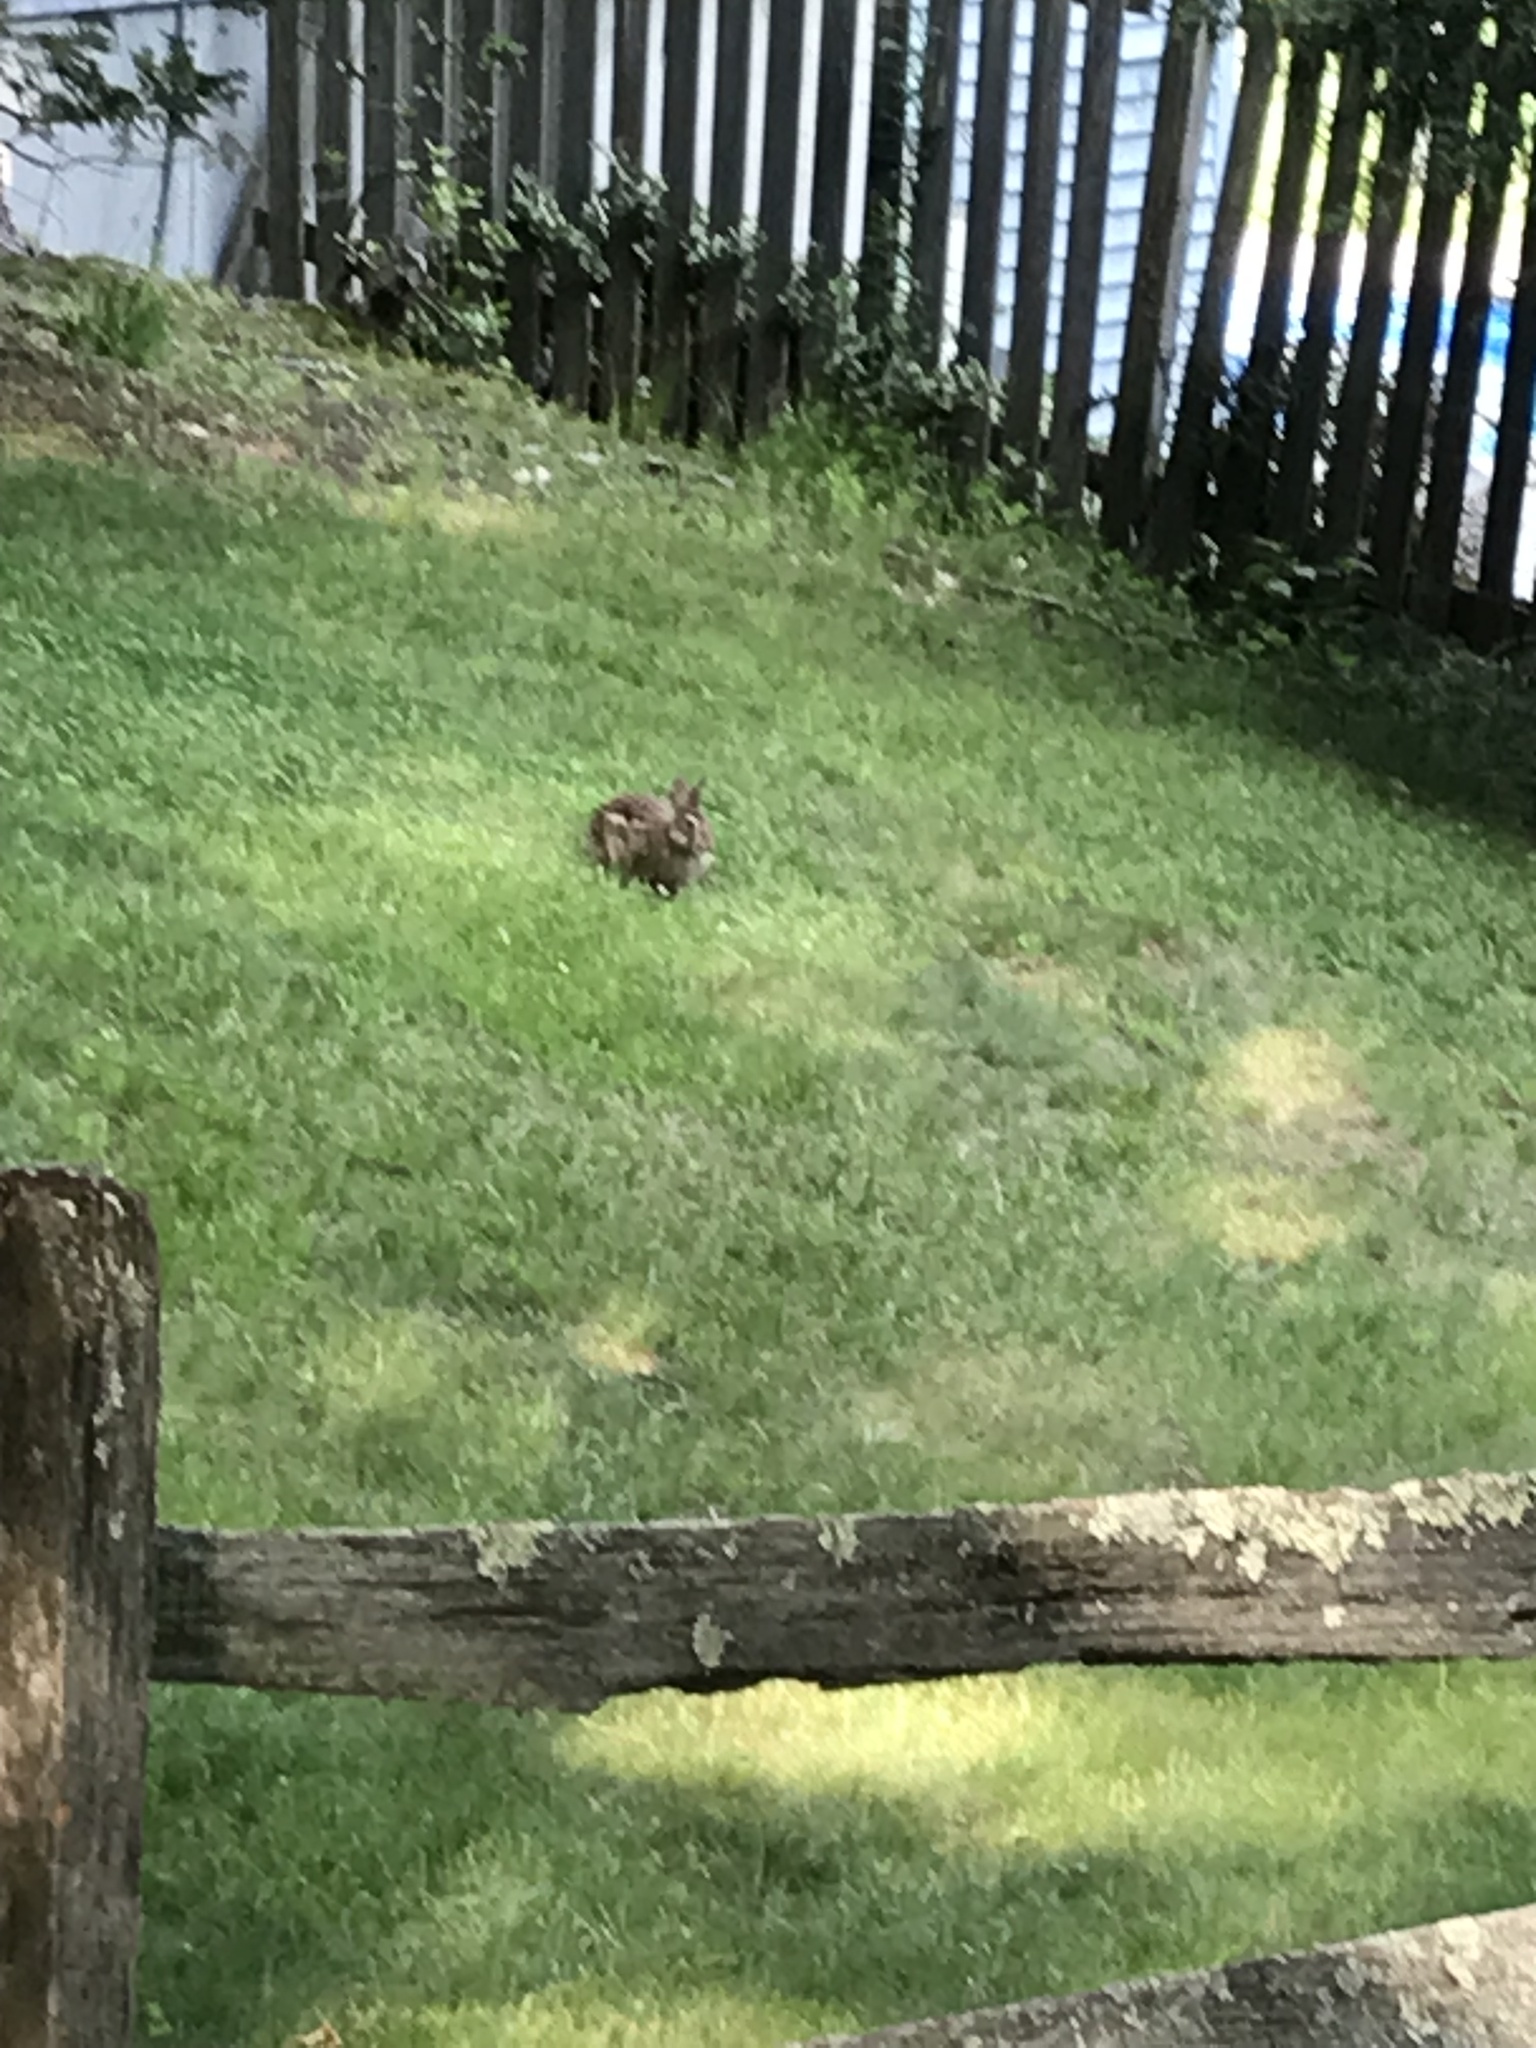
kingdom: Animalia
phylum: Chordata
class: Mammalia
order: Lagomorpha
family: Leporidae
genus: Sylvilagus
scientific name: Sylvilagus floridanus
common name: Eastern cottontail
